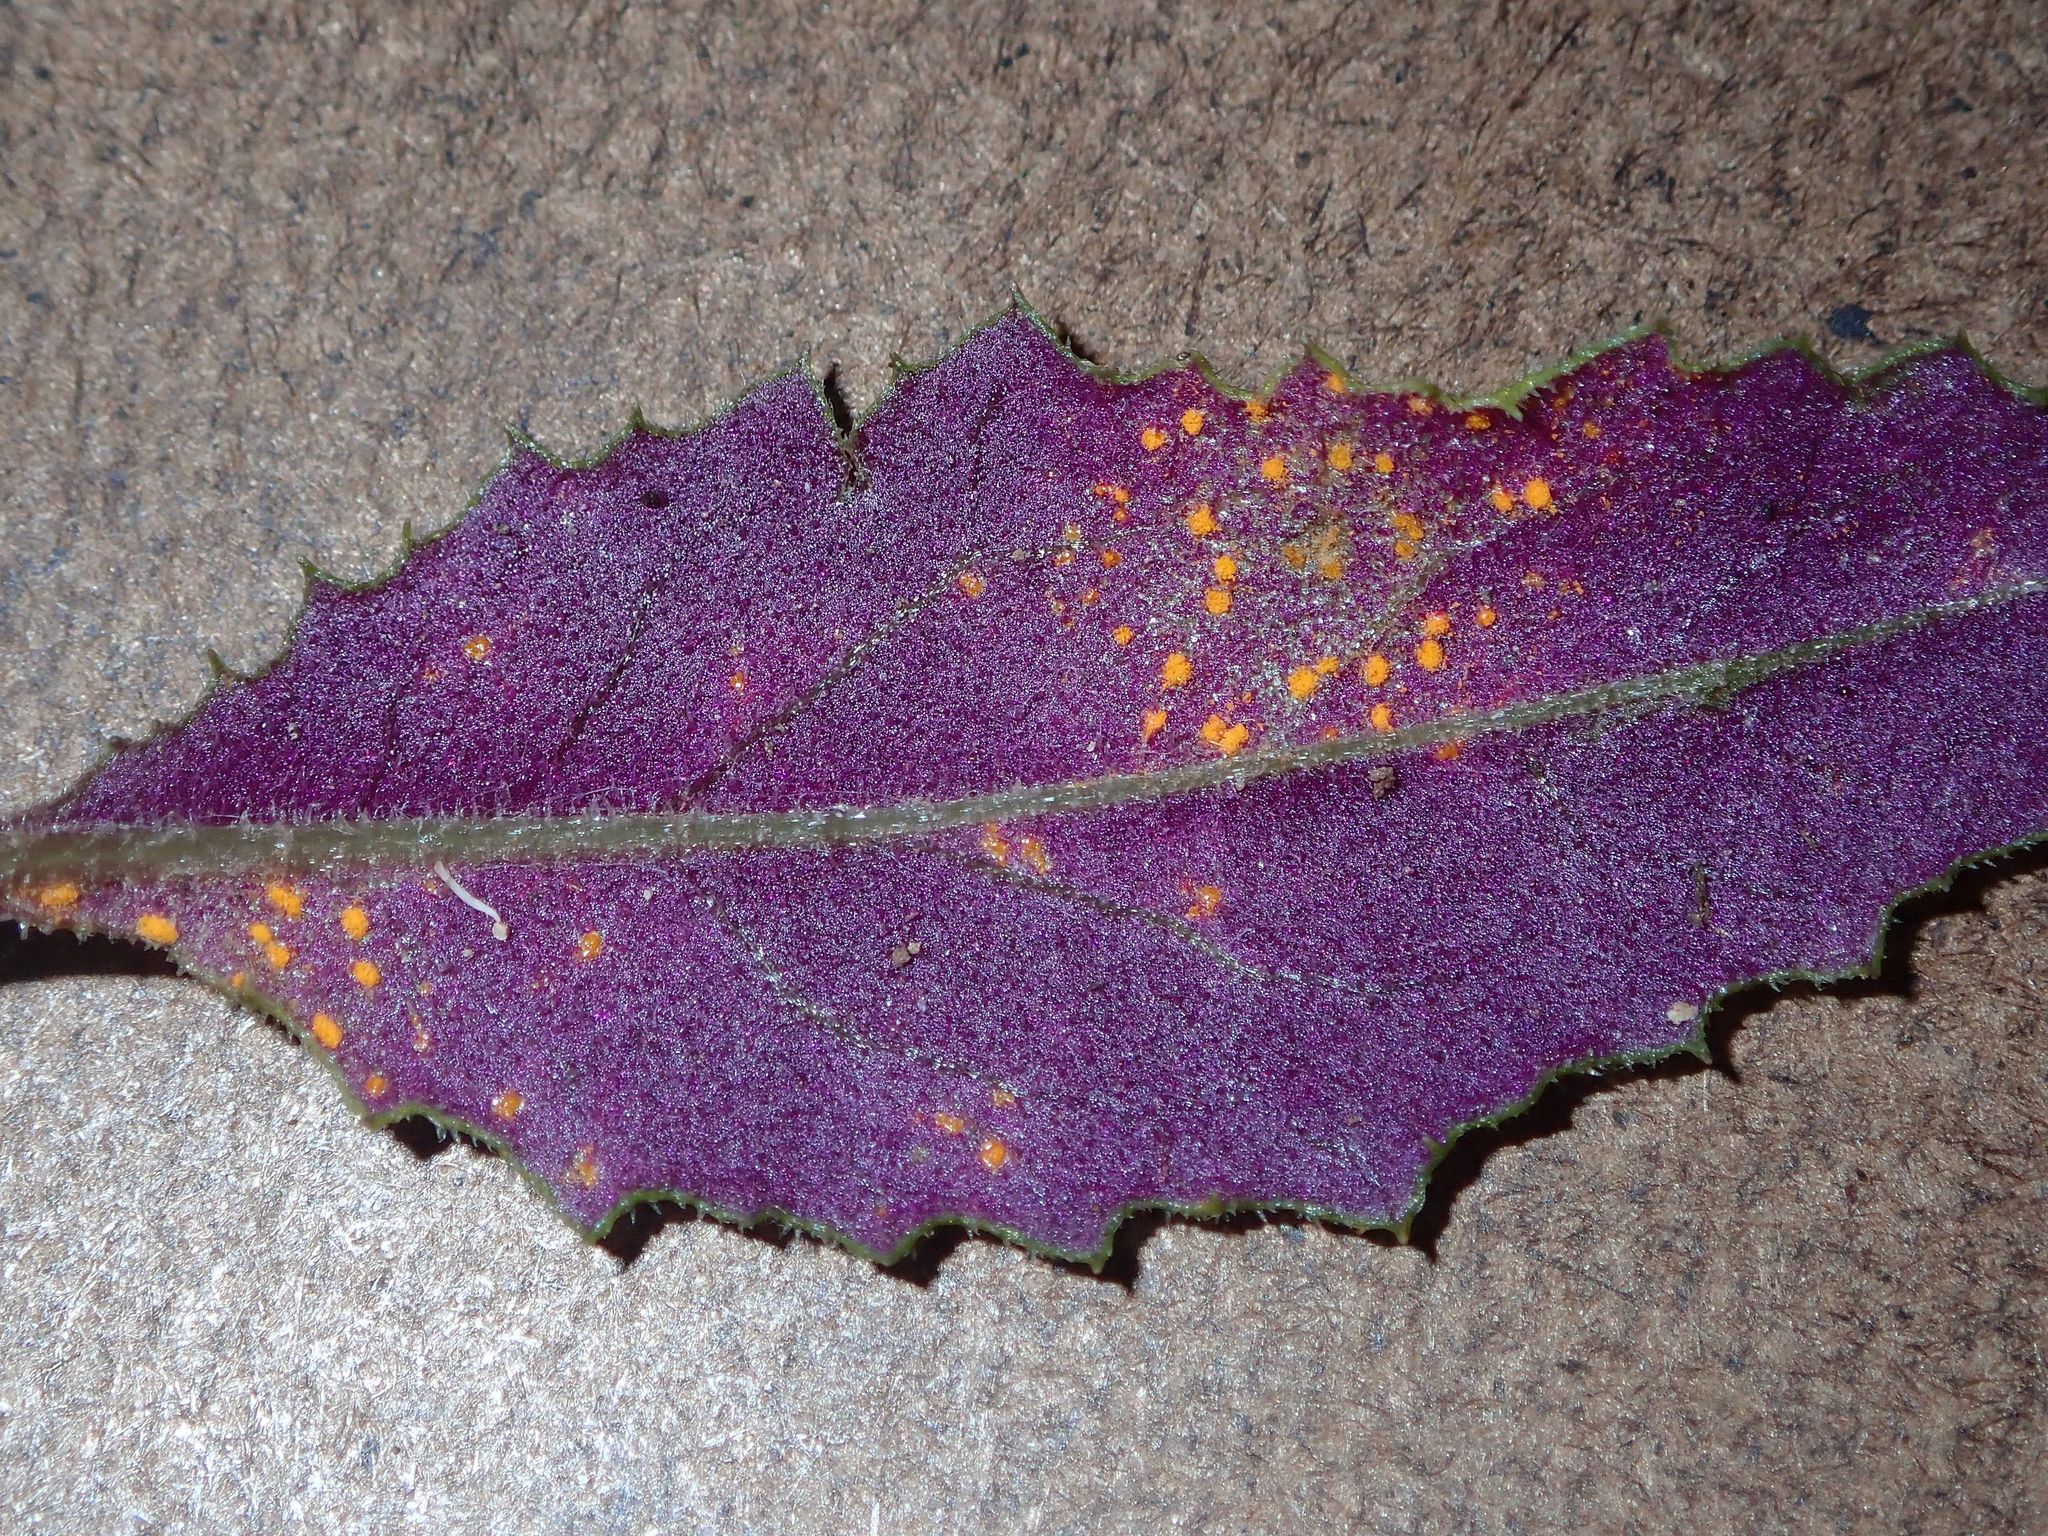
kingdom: Fungi
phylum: Basidiomycota
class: Pucciniomycetes
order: Pucciniales
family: Coleosporiaceae
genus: Coleosporium
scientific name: Coleosporium tussilaginis
